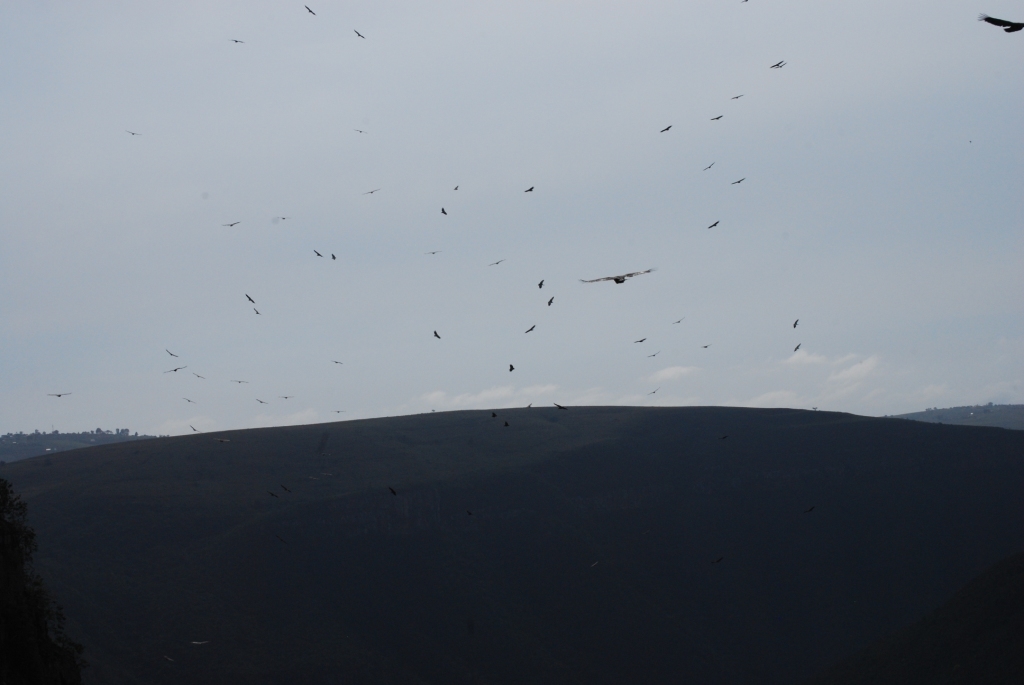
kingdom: Animalia
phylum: Chordata
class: Aves
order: Accipitriformes
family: Accipitridae
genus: Gyps
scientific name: Gyps coprotheres
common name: Cape vulture
